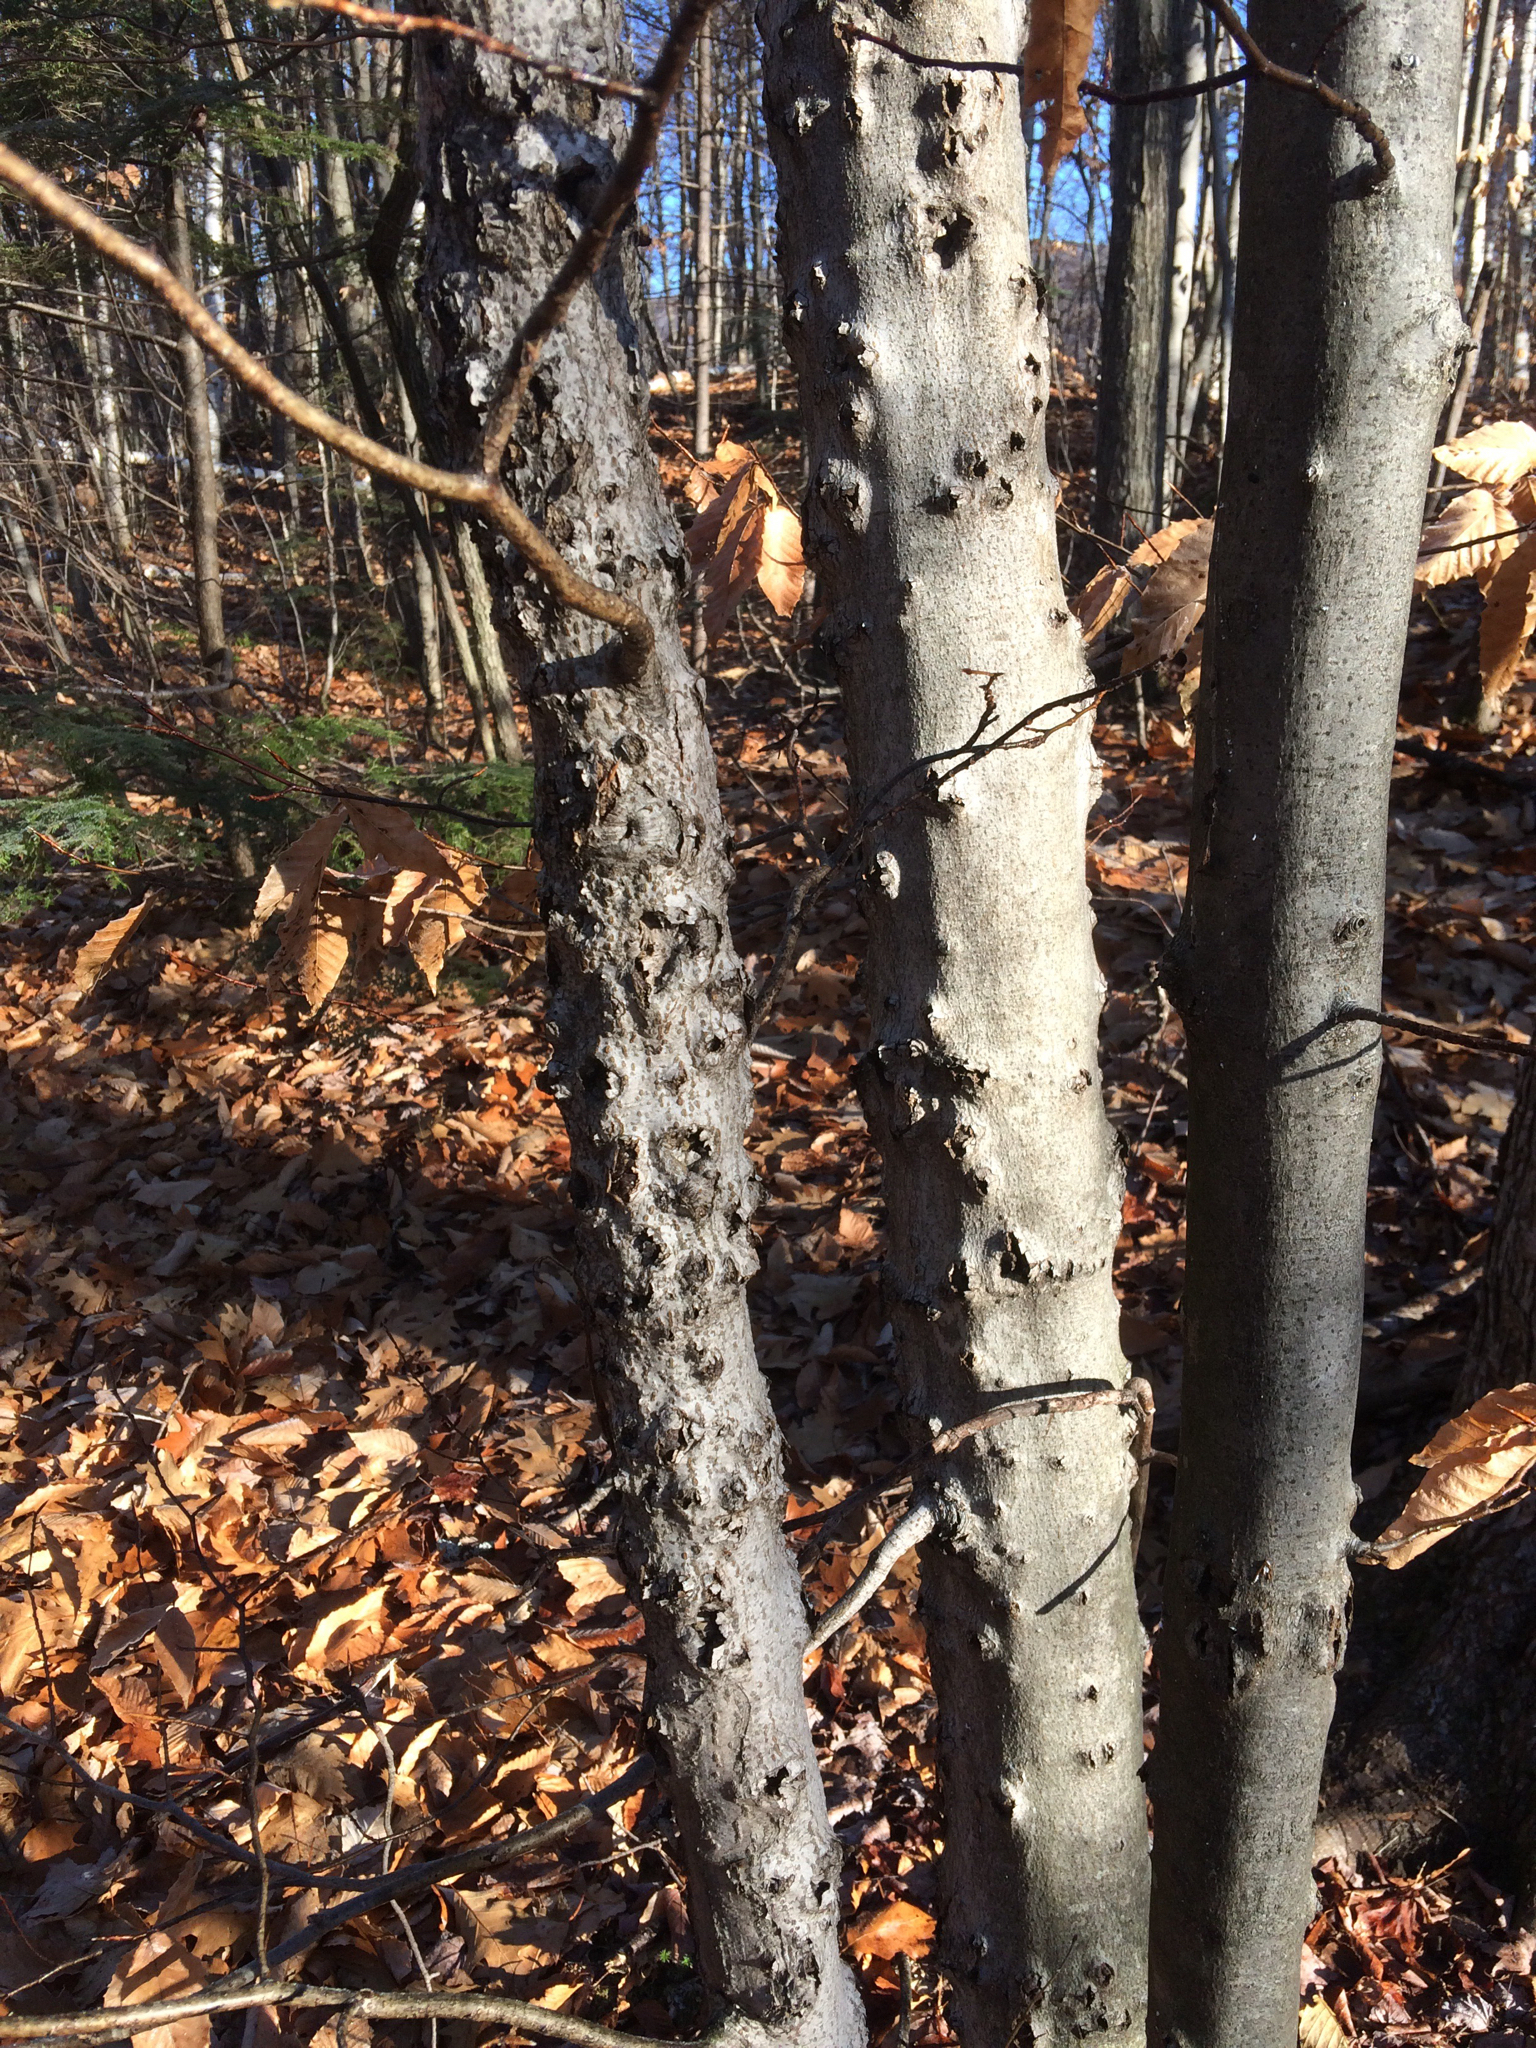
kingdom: Animalia
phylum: Arthropoda
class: Insecta
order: Hemiptera
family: Eriococcidae
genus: Cryptococcus
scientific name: Cryptococcus fagisuga
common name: Beech scale
